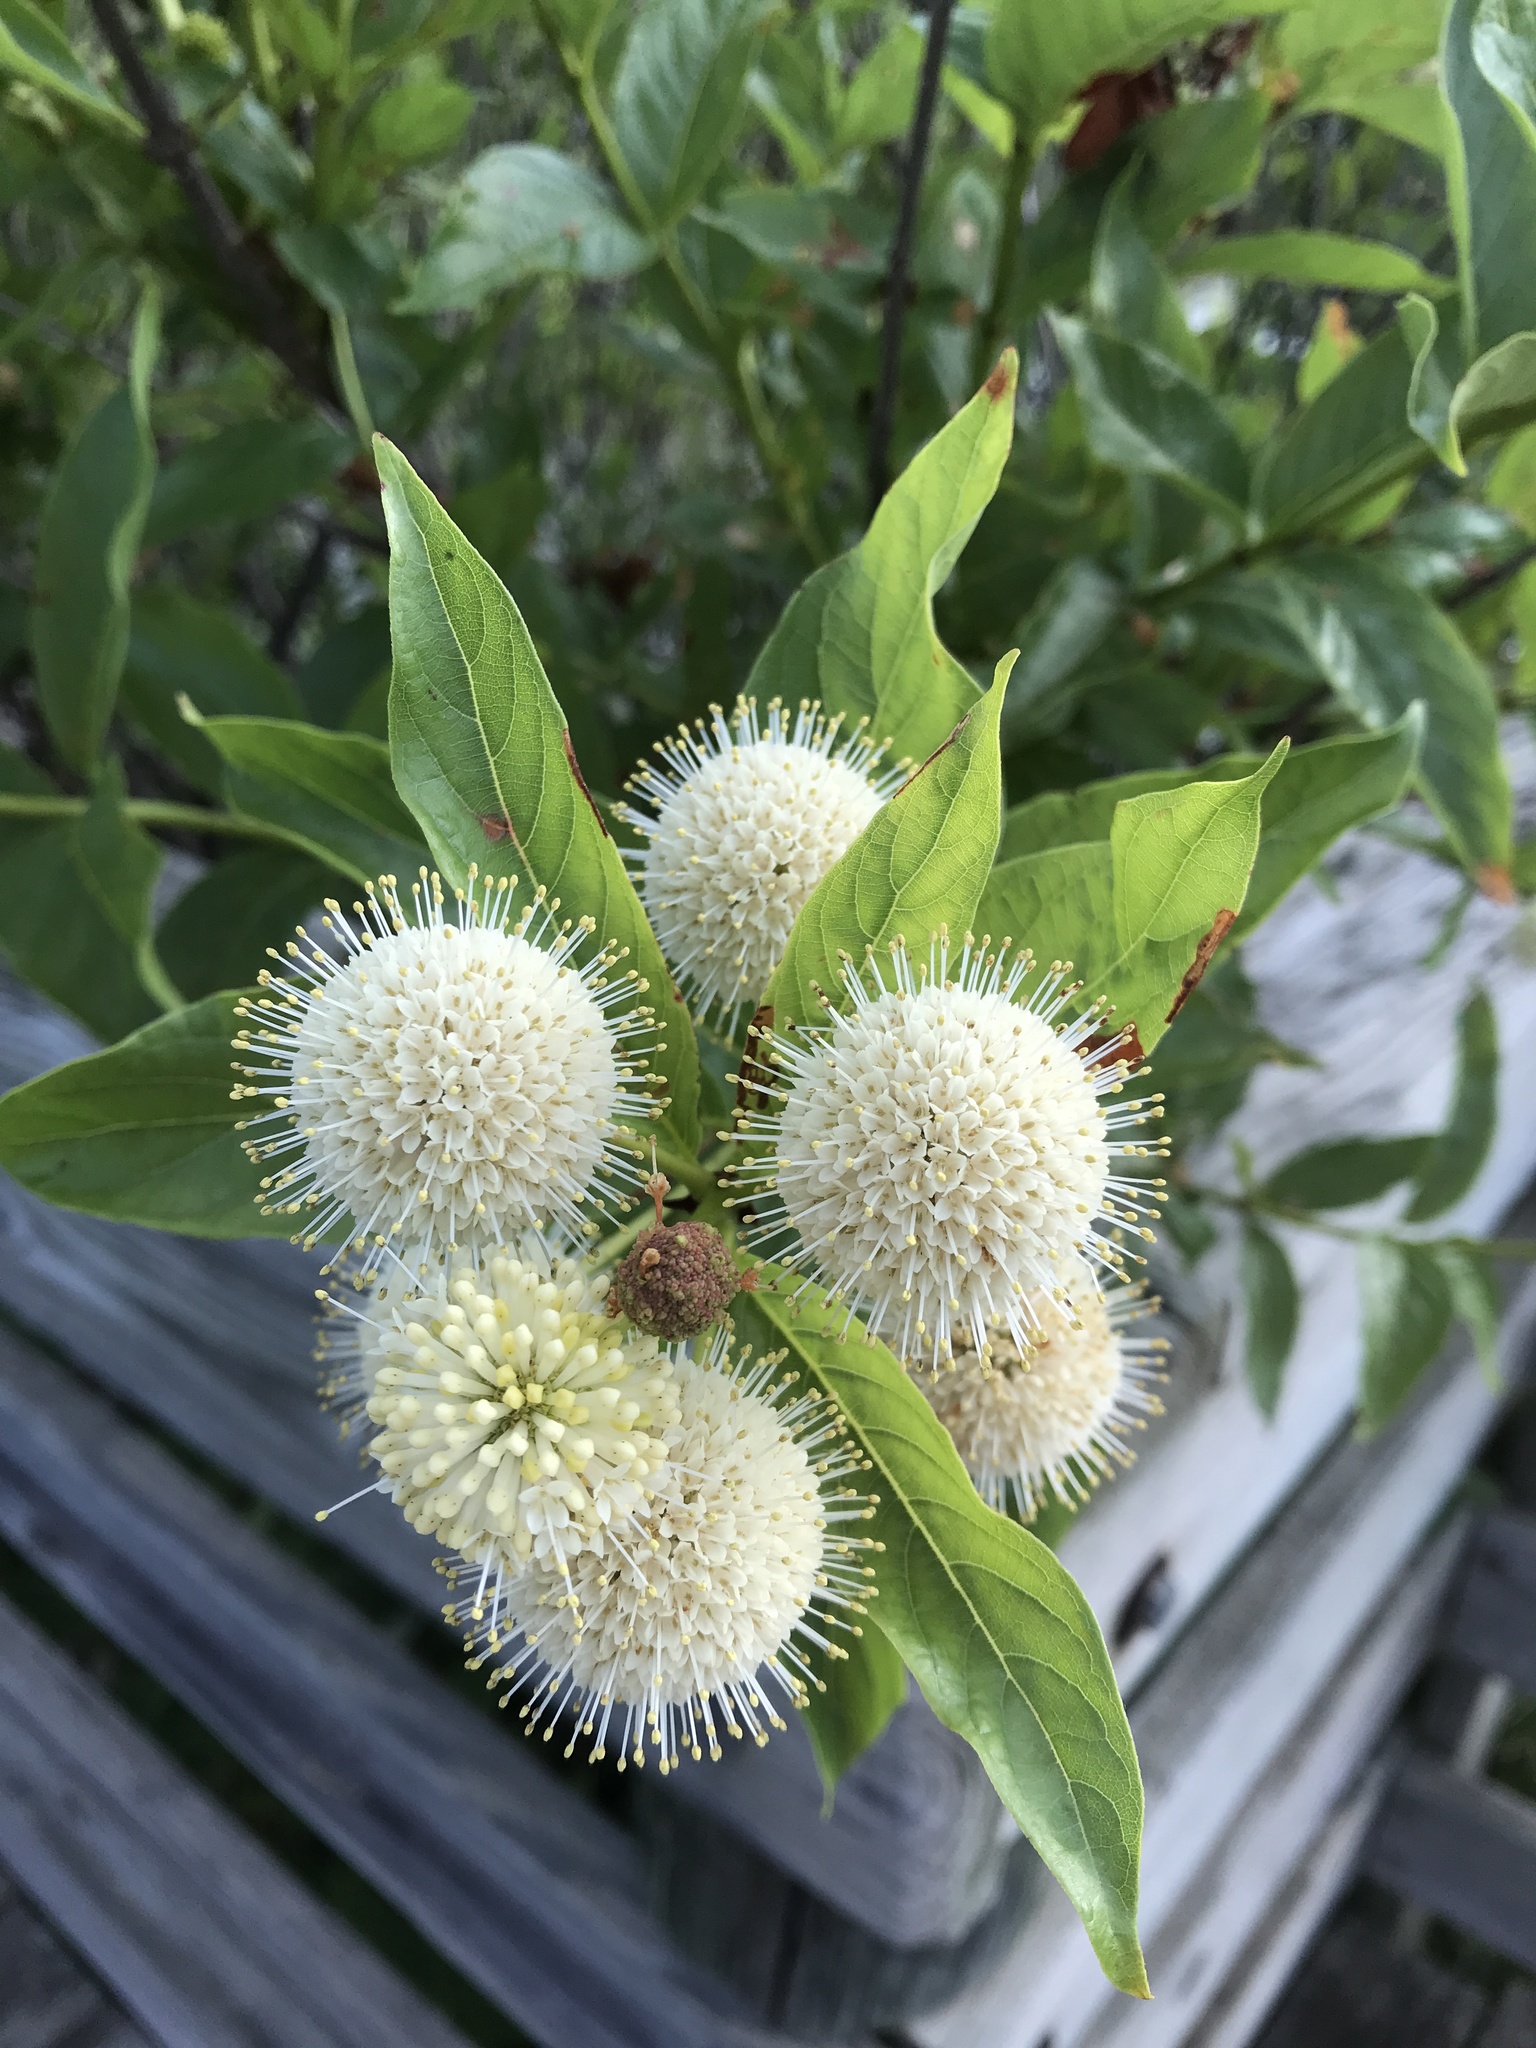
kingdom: Plantae
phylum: Tracheophyta
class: Magnoliopsida
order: Gentianales
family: Rubiaceae
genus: Cephalanthus
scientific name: Cephalanthus occidentalis
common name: Button-willow
